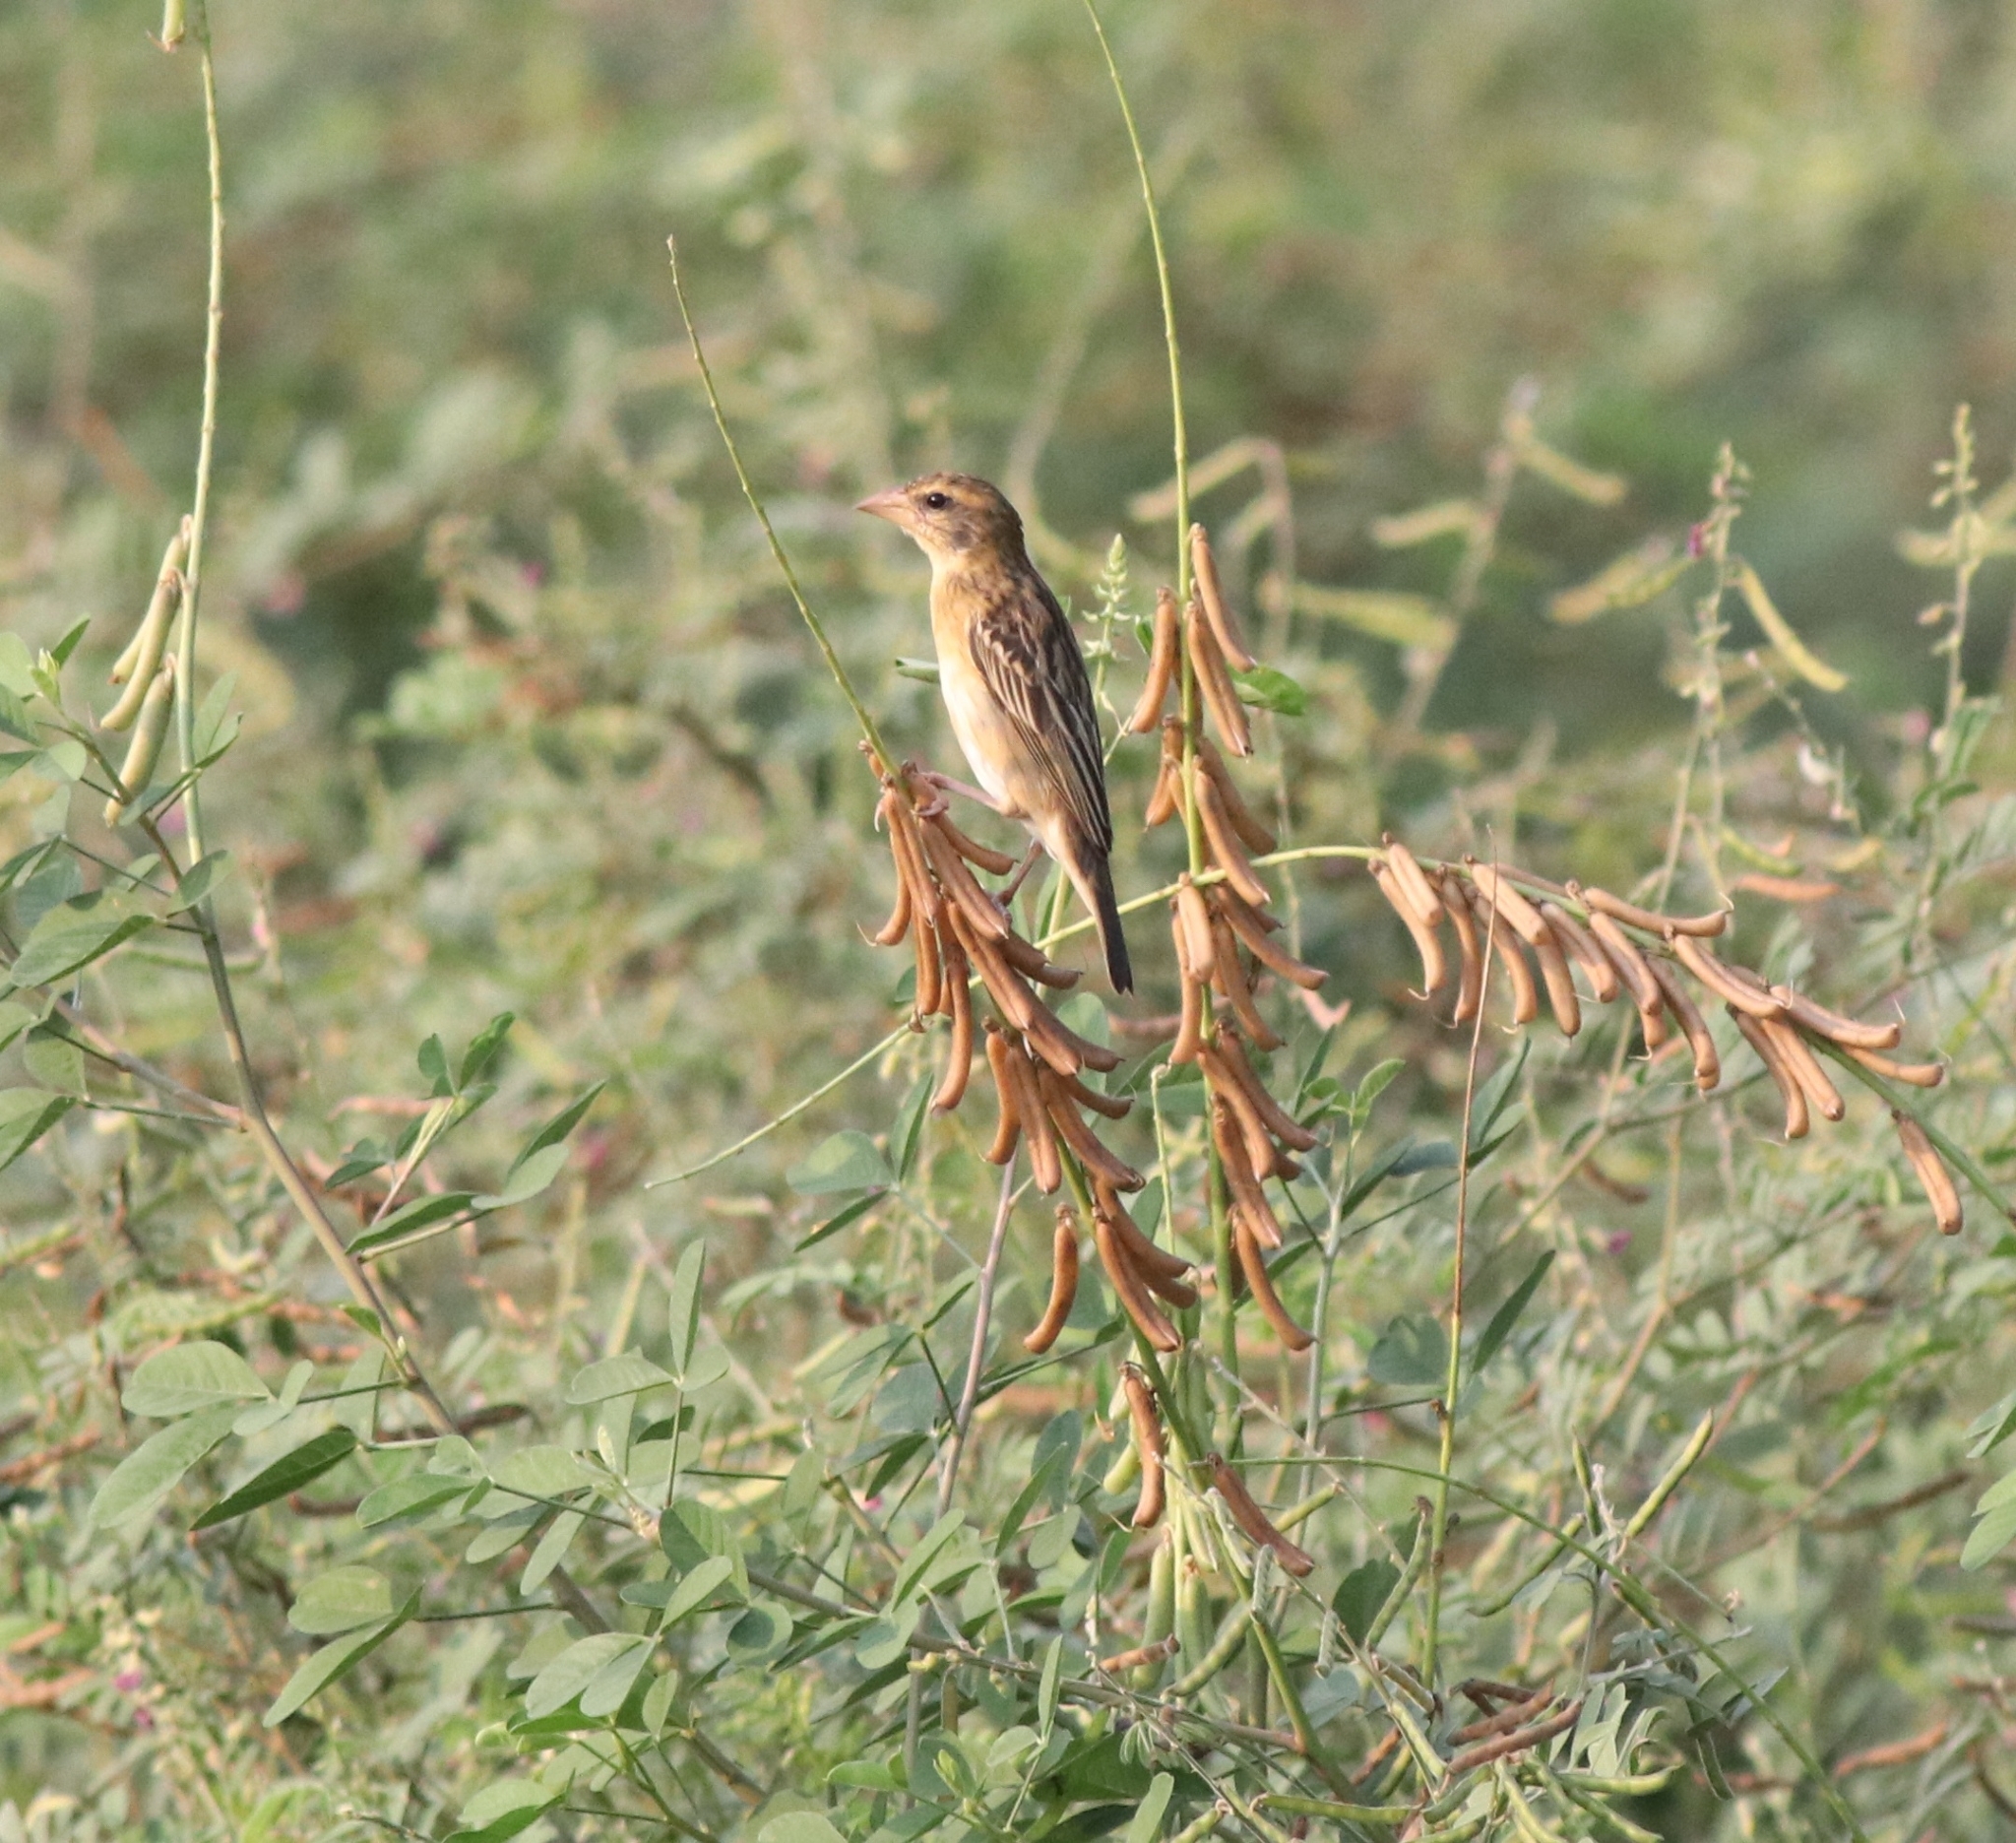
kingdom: Animalia
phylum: Chordata
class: Aves
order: Passeriformes
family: Ploceidae
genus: Ploceus
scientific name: Ploceus philippinus
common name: Baya weaver
